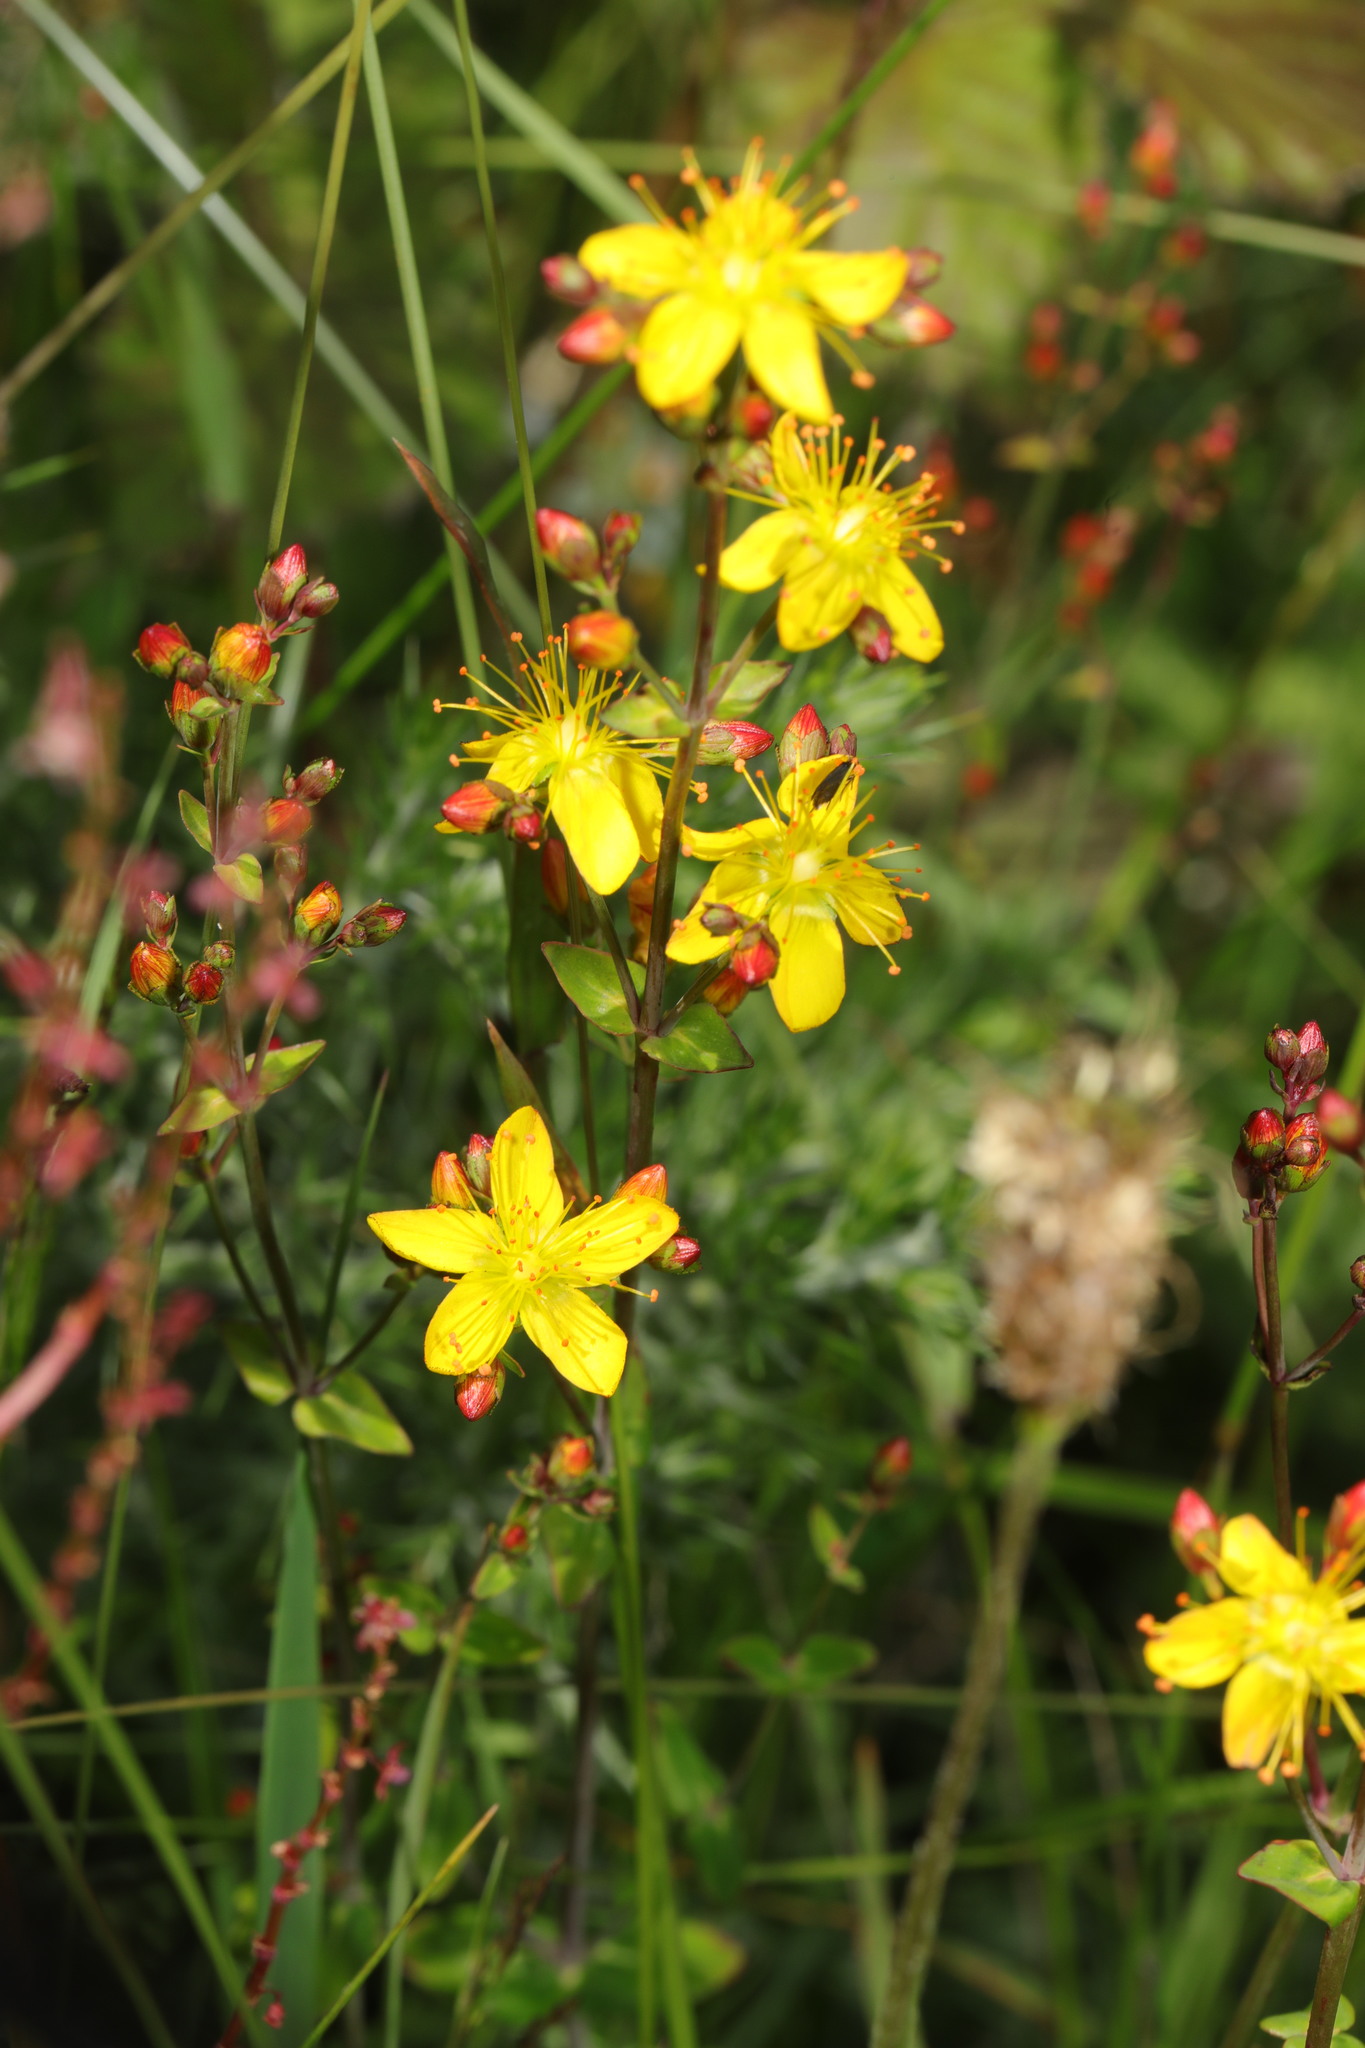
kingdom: Plantae
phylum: Tracheophyta
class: Magnoliopsida
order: Malpighiales
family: Hypericaceae
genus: Hypericum
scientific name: Hypericum pulchrum
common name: Slender st. john's-wort
